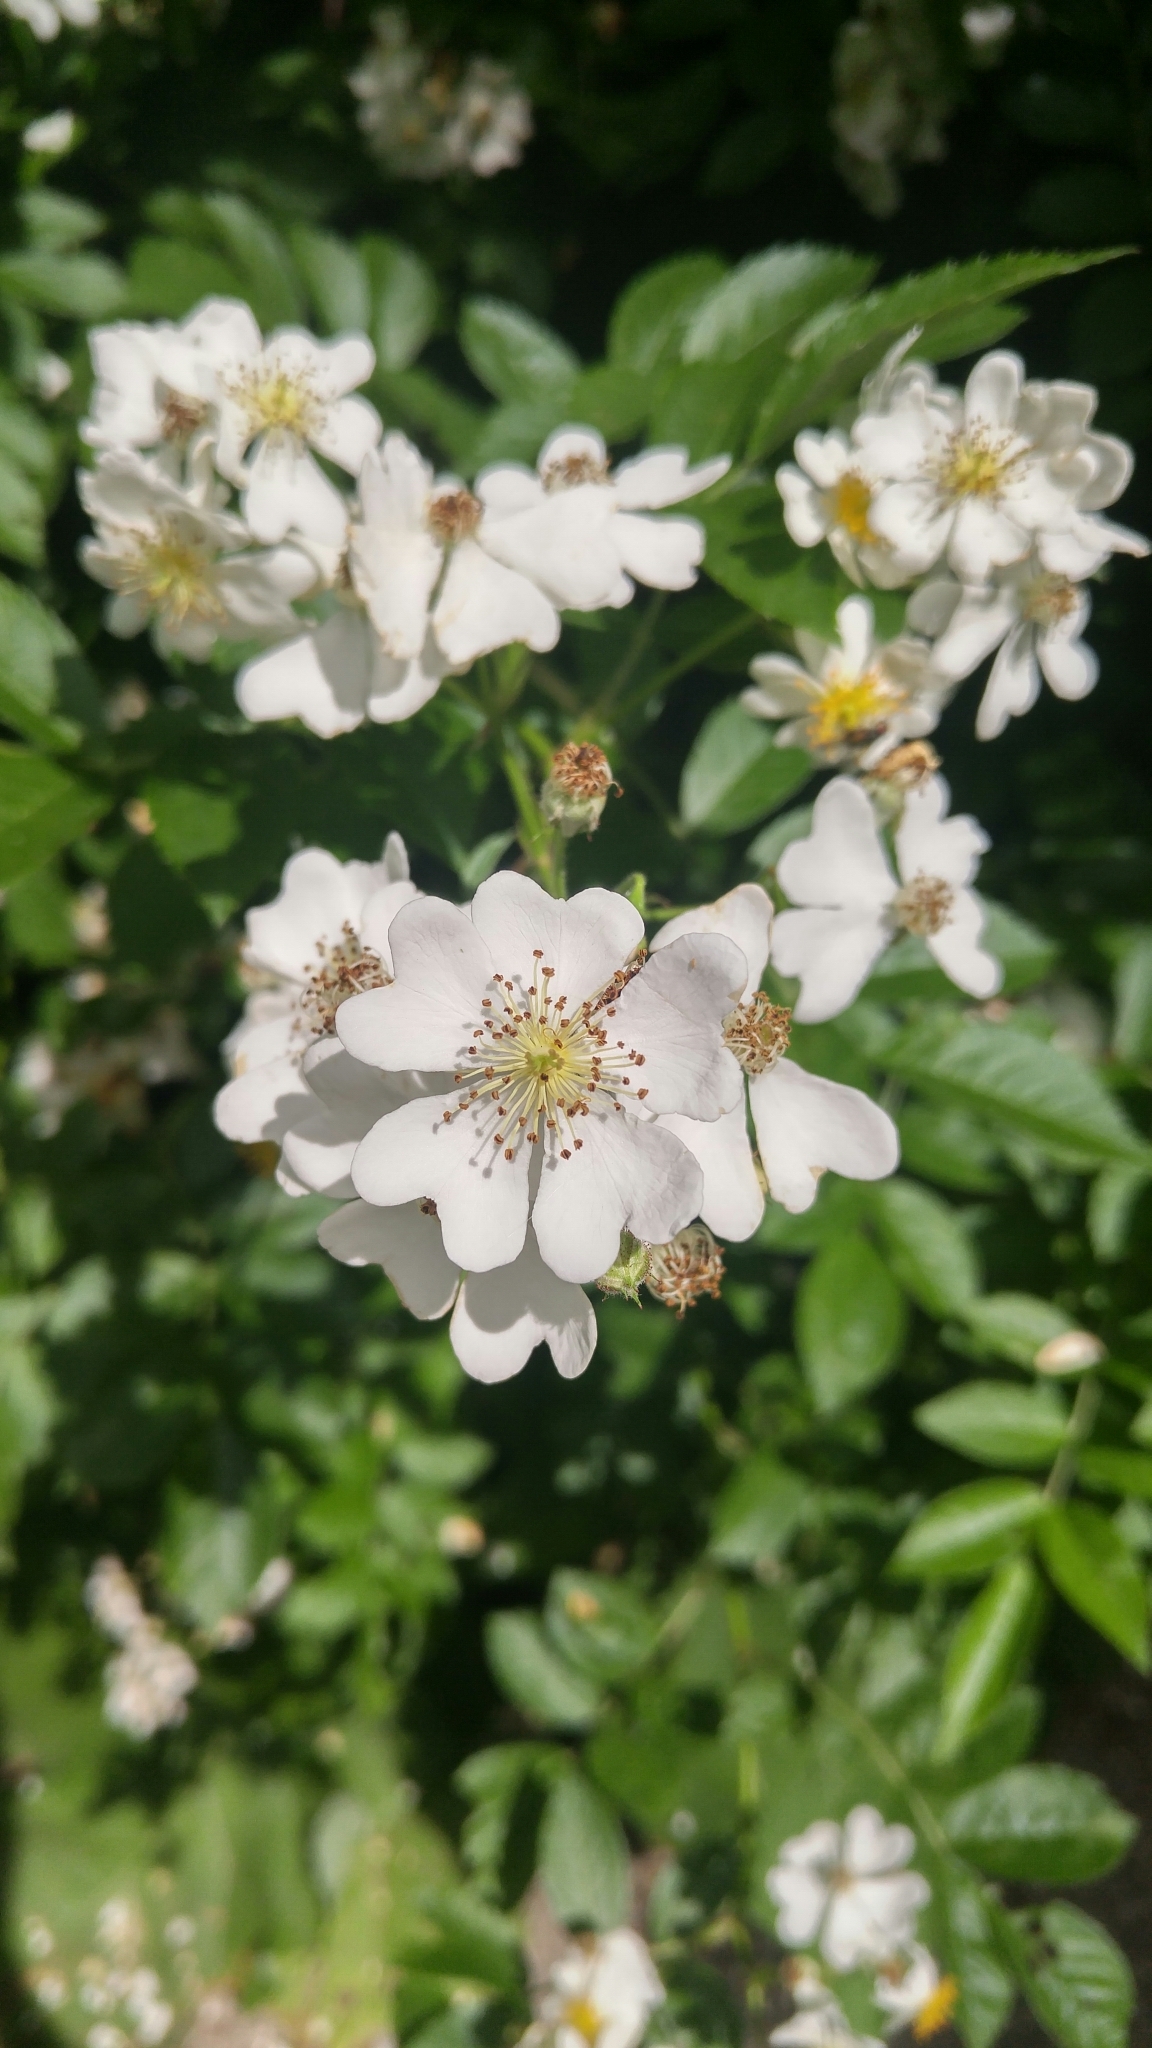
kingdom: Plantae
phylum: Tracheophyta
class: Magnoliopsida
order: Rosales
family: Rosaceae
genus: Rosa
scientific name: Rosa multiflora
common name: Multiflora rose
